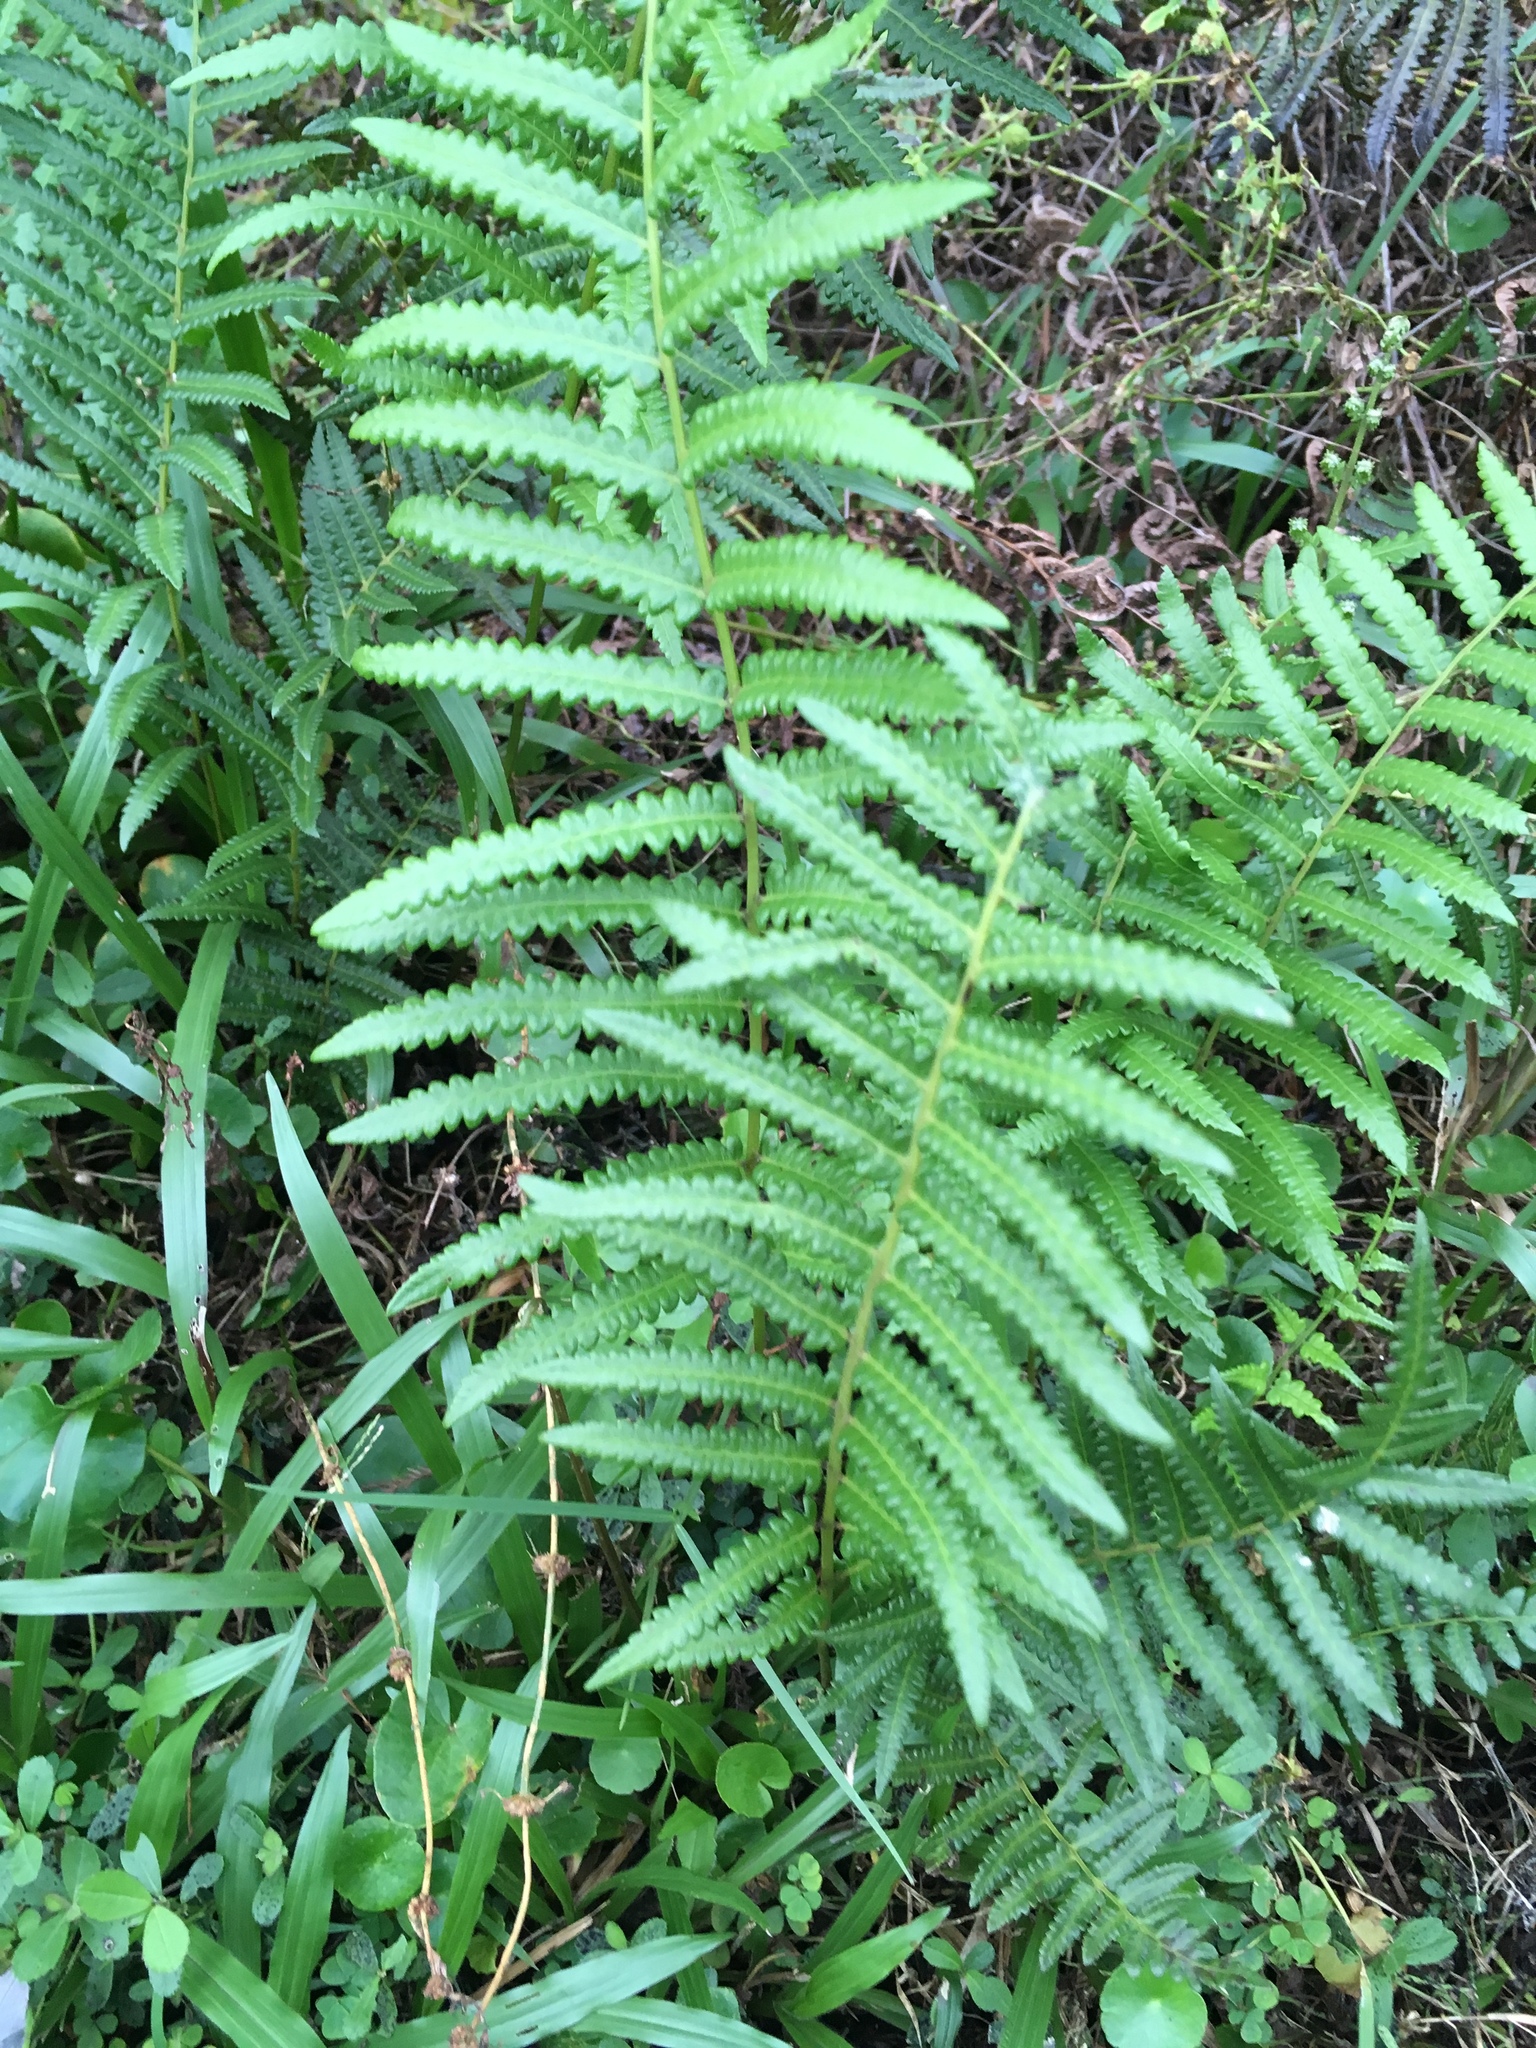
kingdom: Plantae
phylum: Tracheophyta
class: Polypodiopsida
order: Polypodiales
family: Thelypteridaceae
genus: Cyclosorus
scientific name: Cyclosorus interruptus
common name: Neke fern
